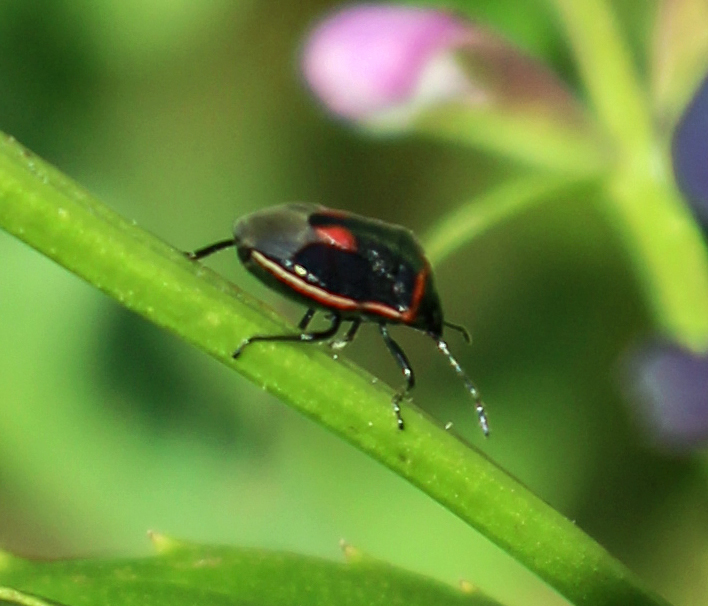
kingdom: Animalia
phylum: Arthropoda
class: Insecta
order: Hemiptera
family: Pentatomidae
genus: Cosmopepla
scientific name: Cosmopepla lintneriana
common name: Twice-stabbed stink bug
